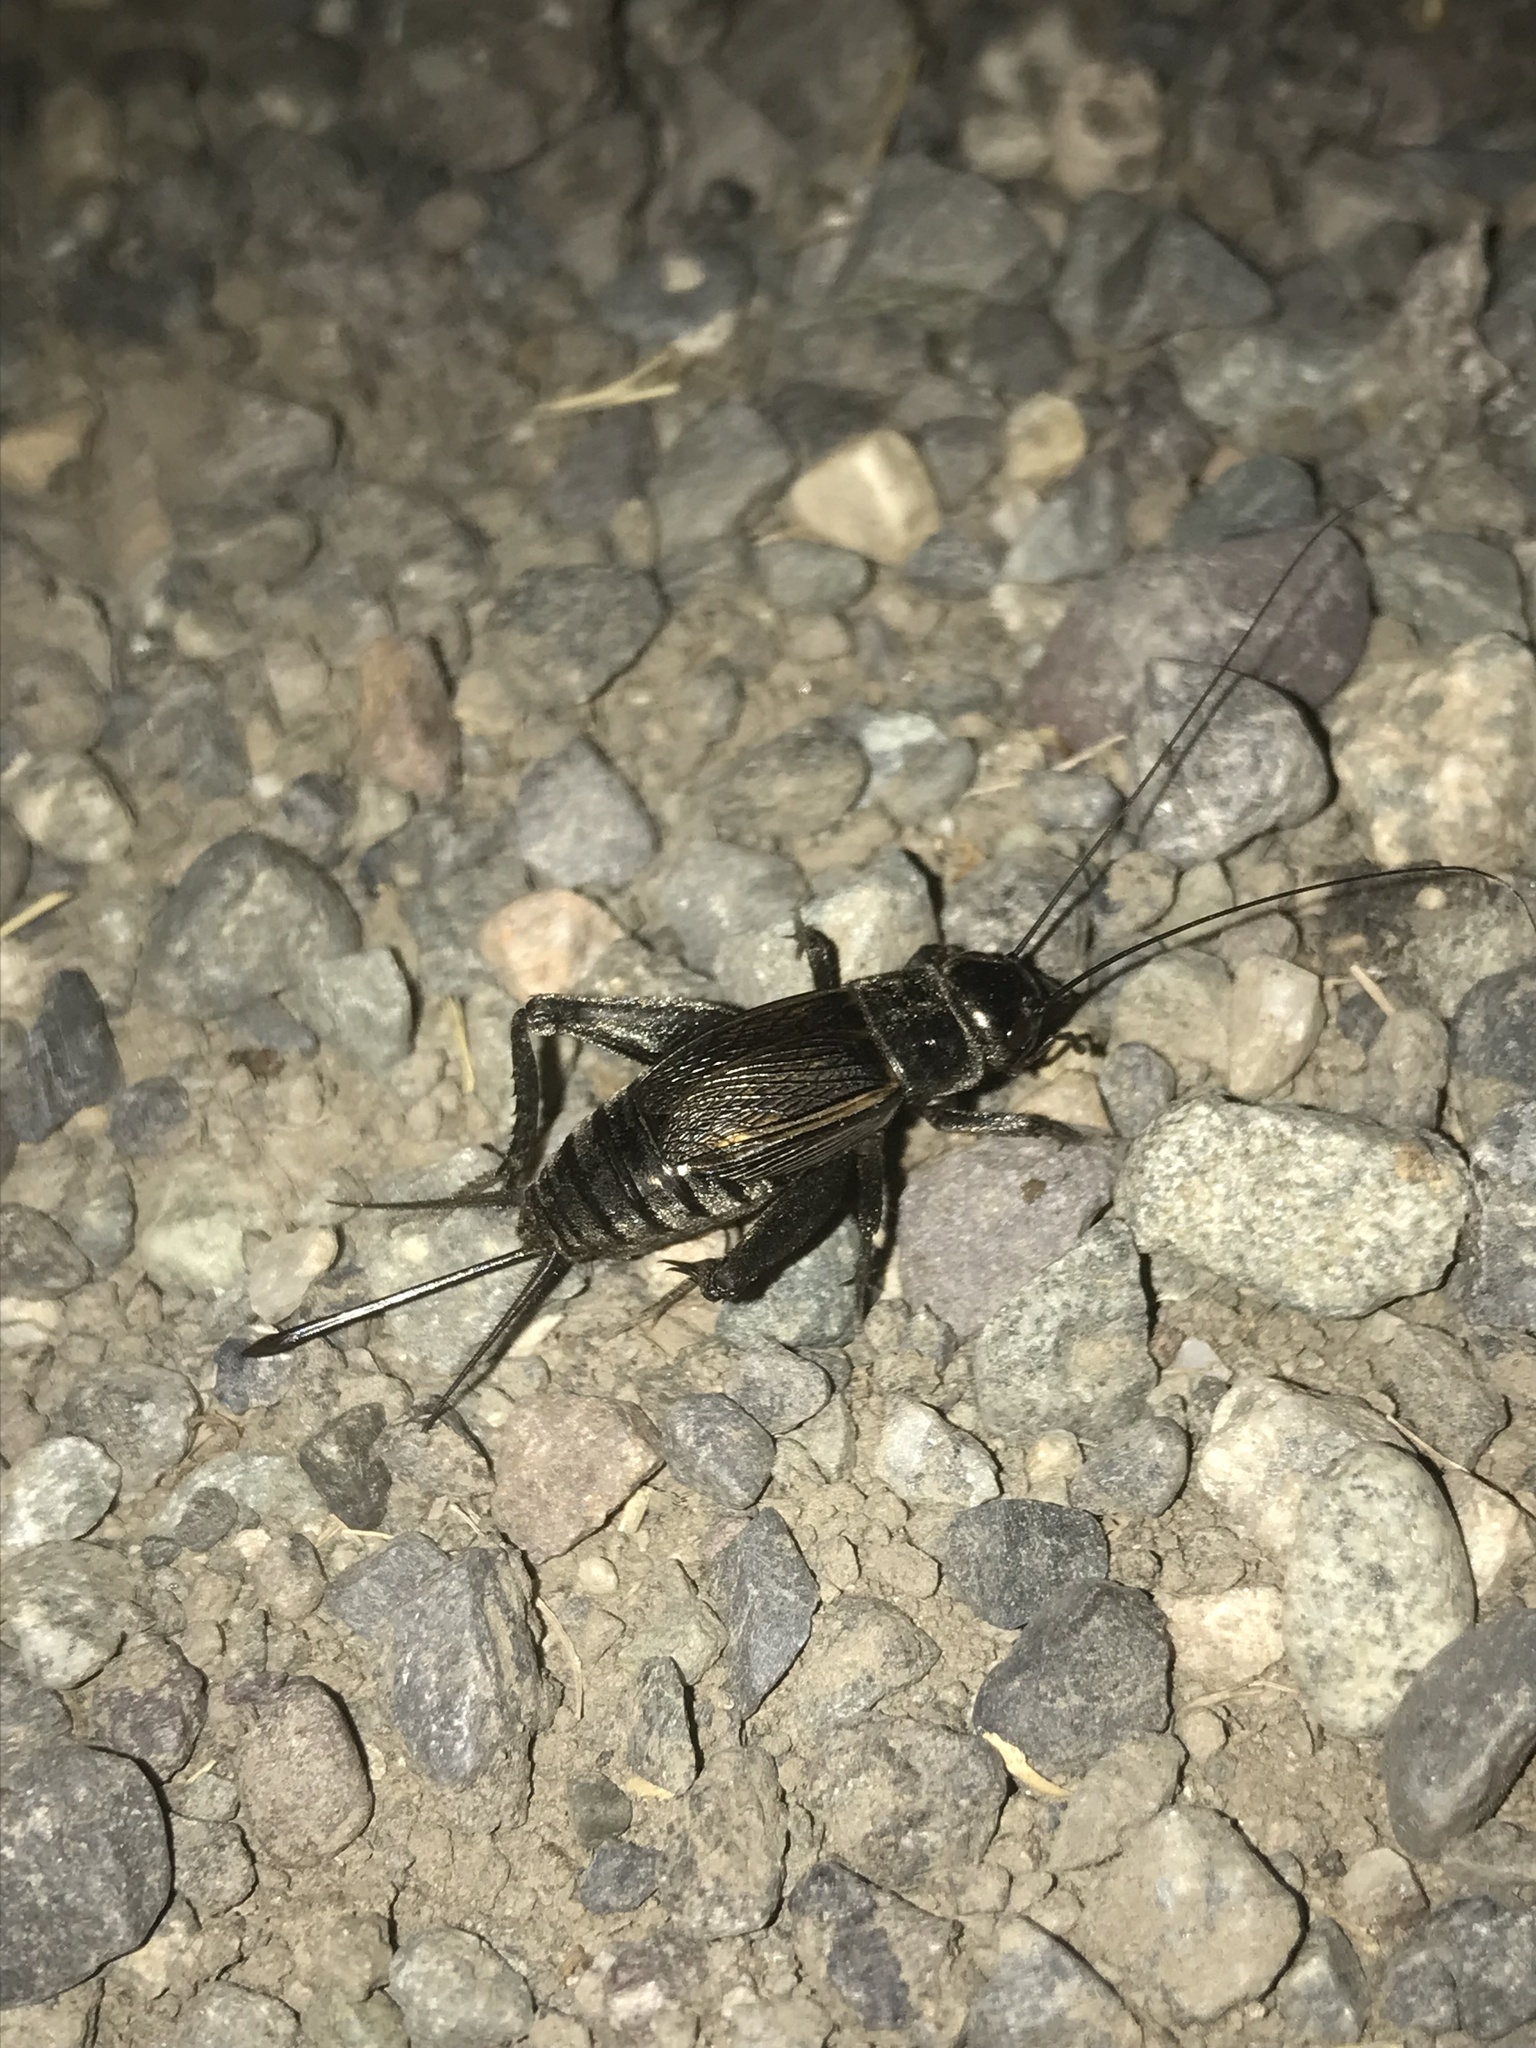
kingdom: Animalia
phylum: Arthropoda
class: Insecta
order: Orthoptera
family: Gryllidae
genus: Gryllus
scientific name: Gryllus veletis
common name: Spring field cricket
